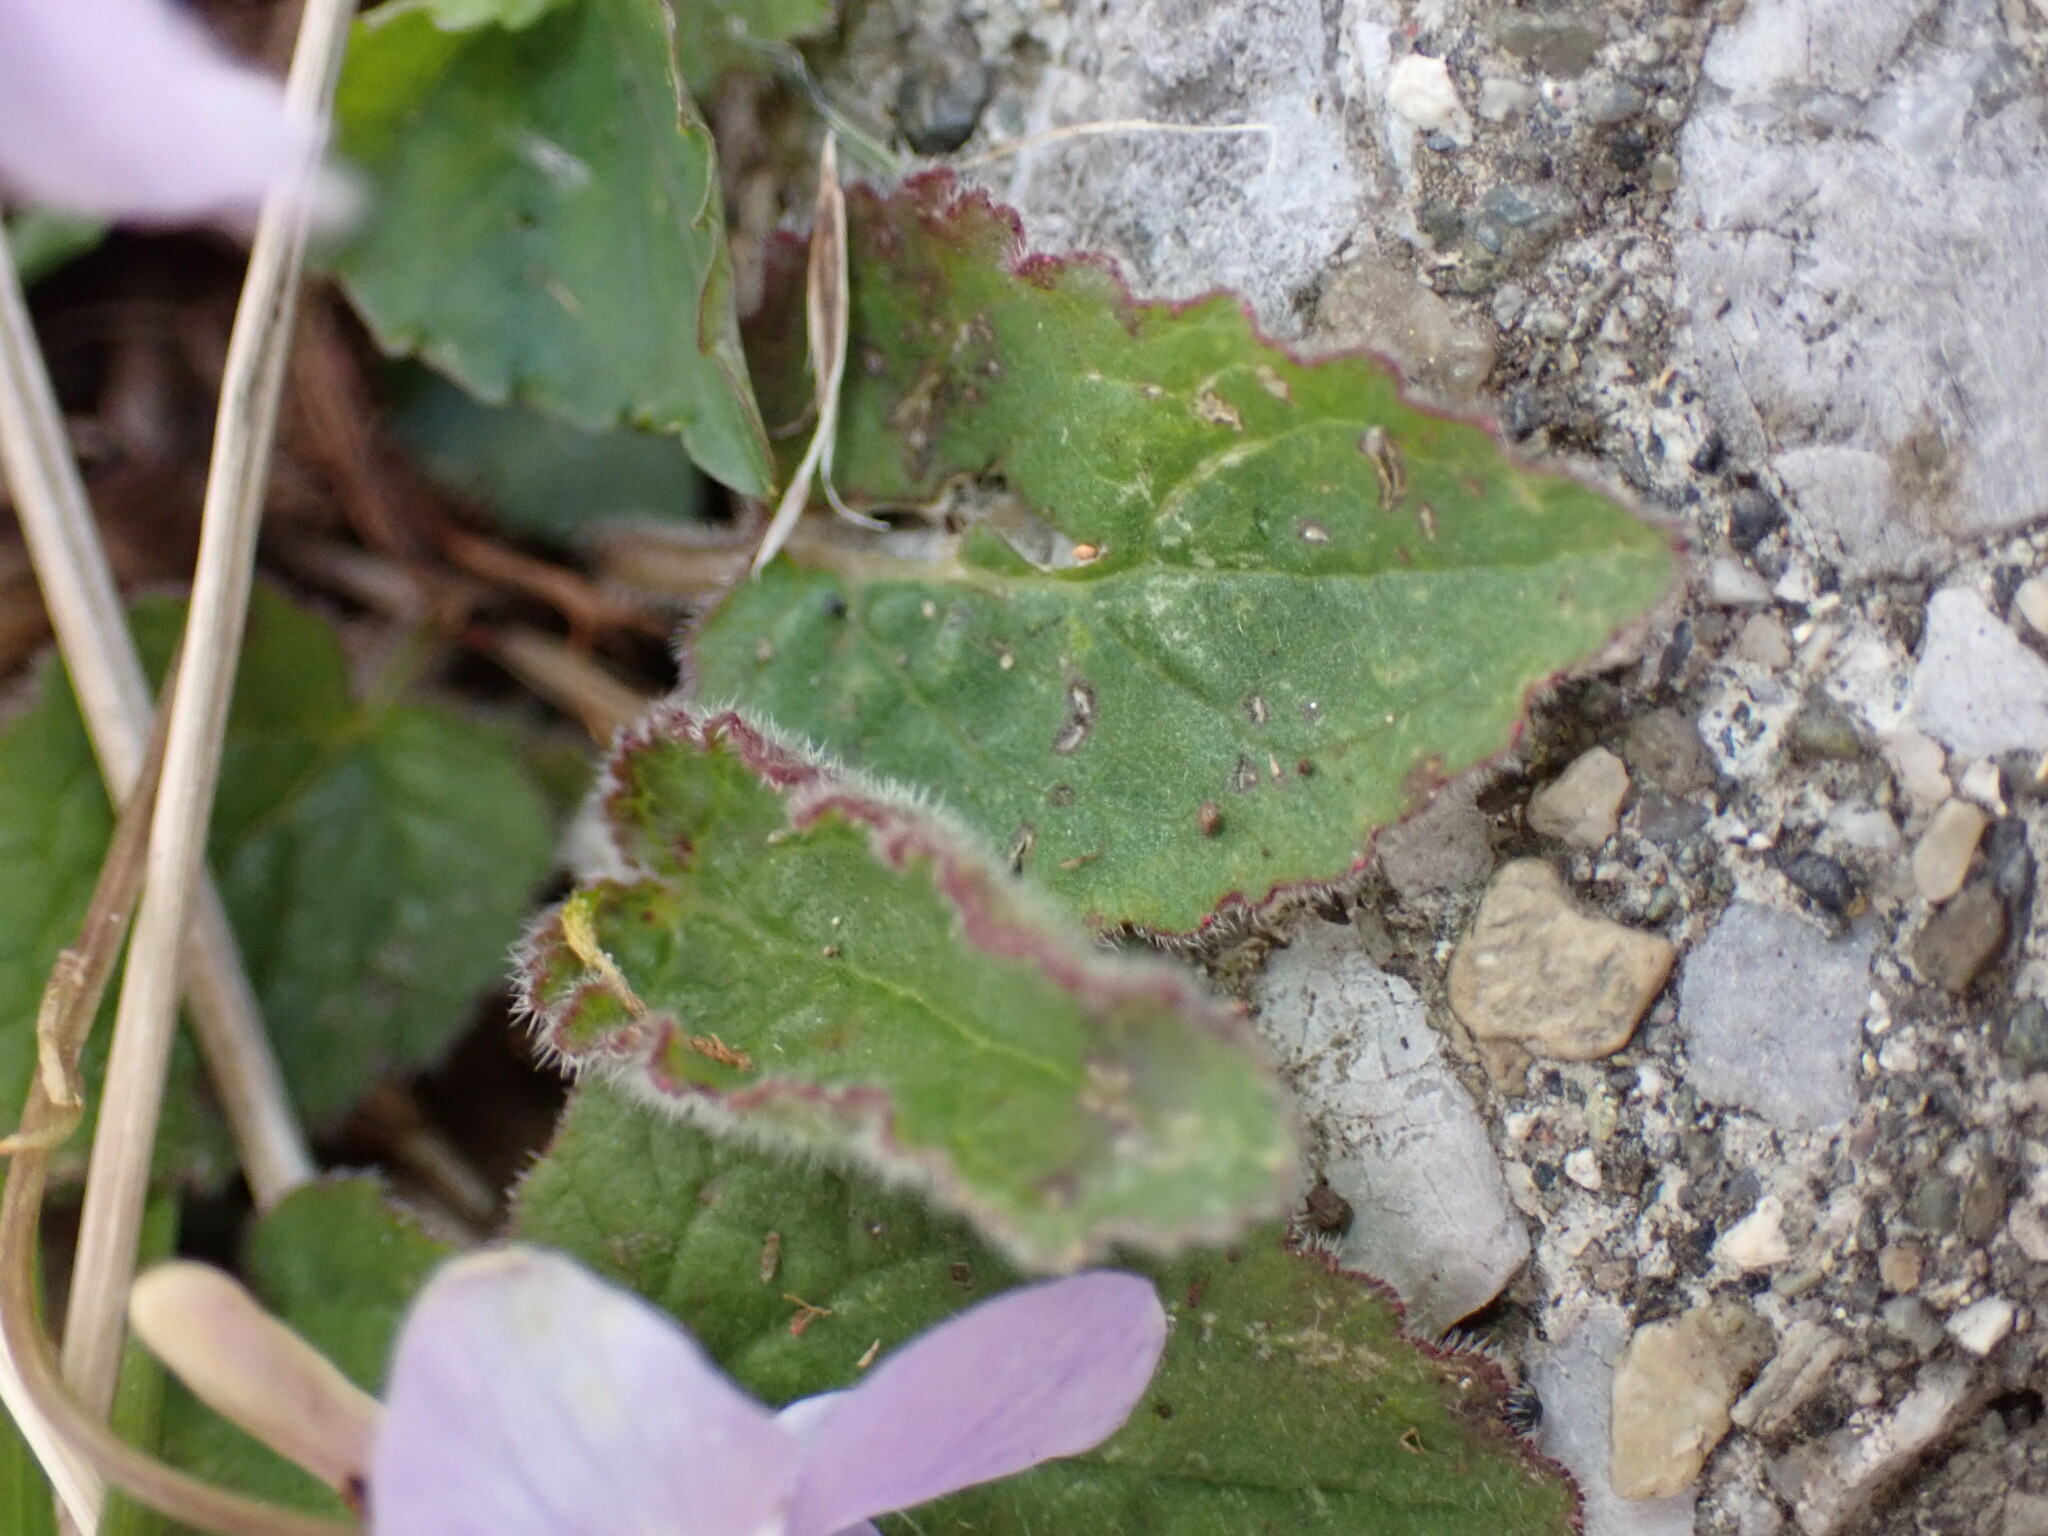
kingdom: Plantae
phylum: Tracheophyta
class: Magnoliopsida
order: Malpighiales
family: Violaceae
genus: Viola
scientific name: Viola grypoceras
